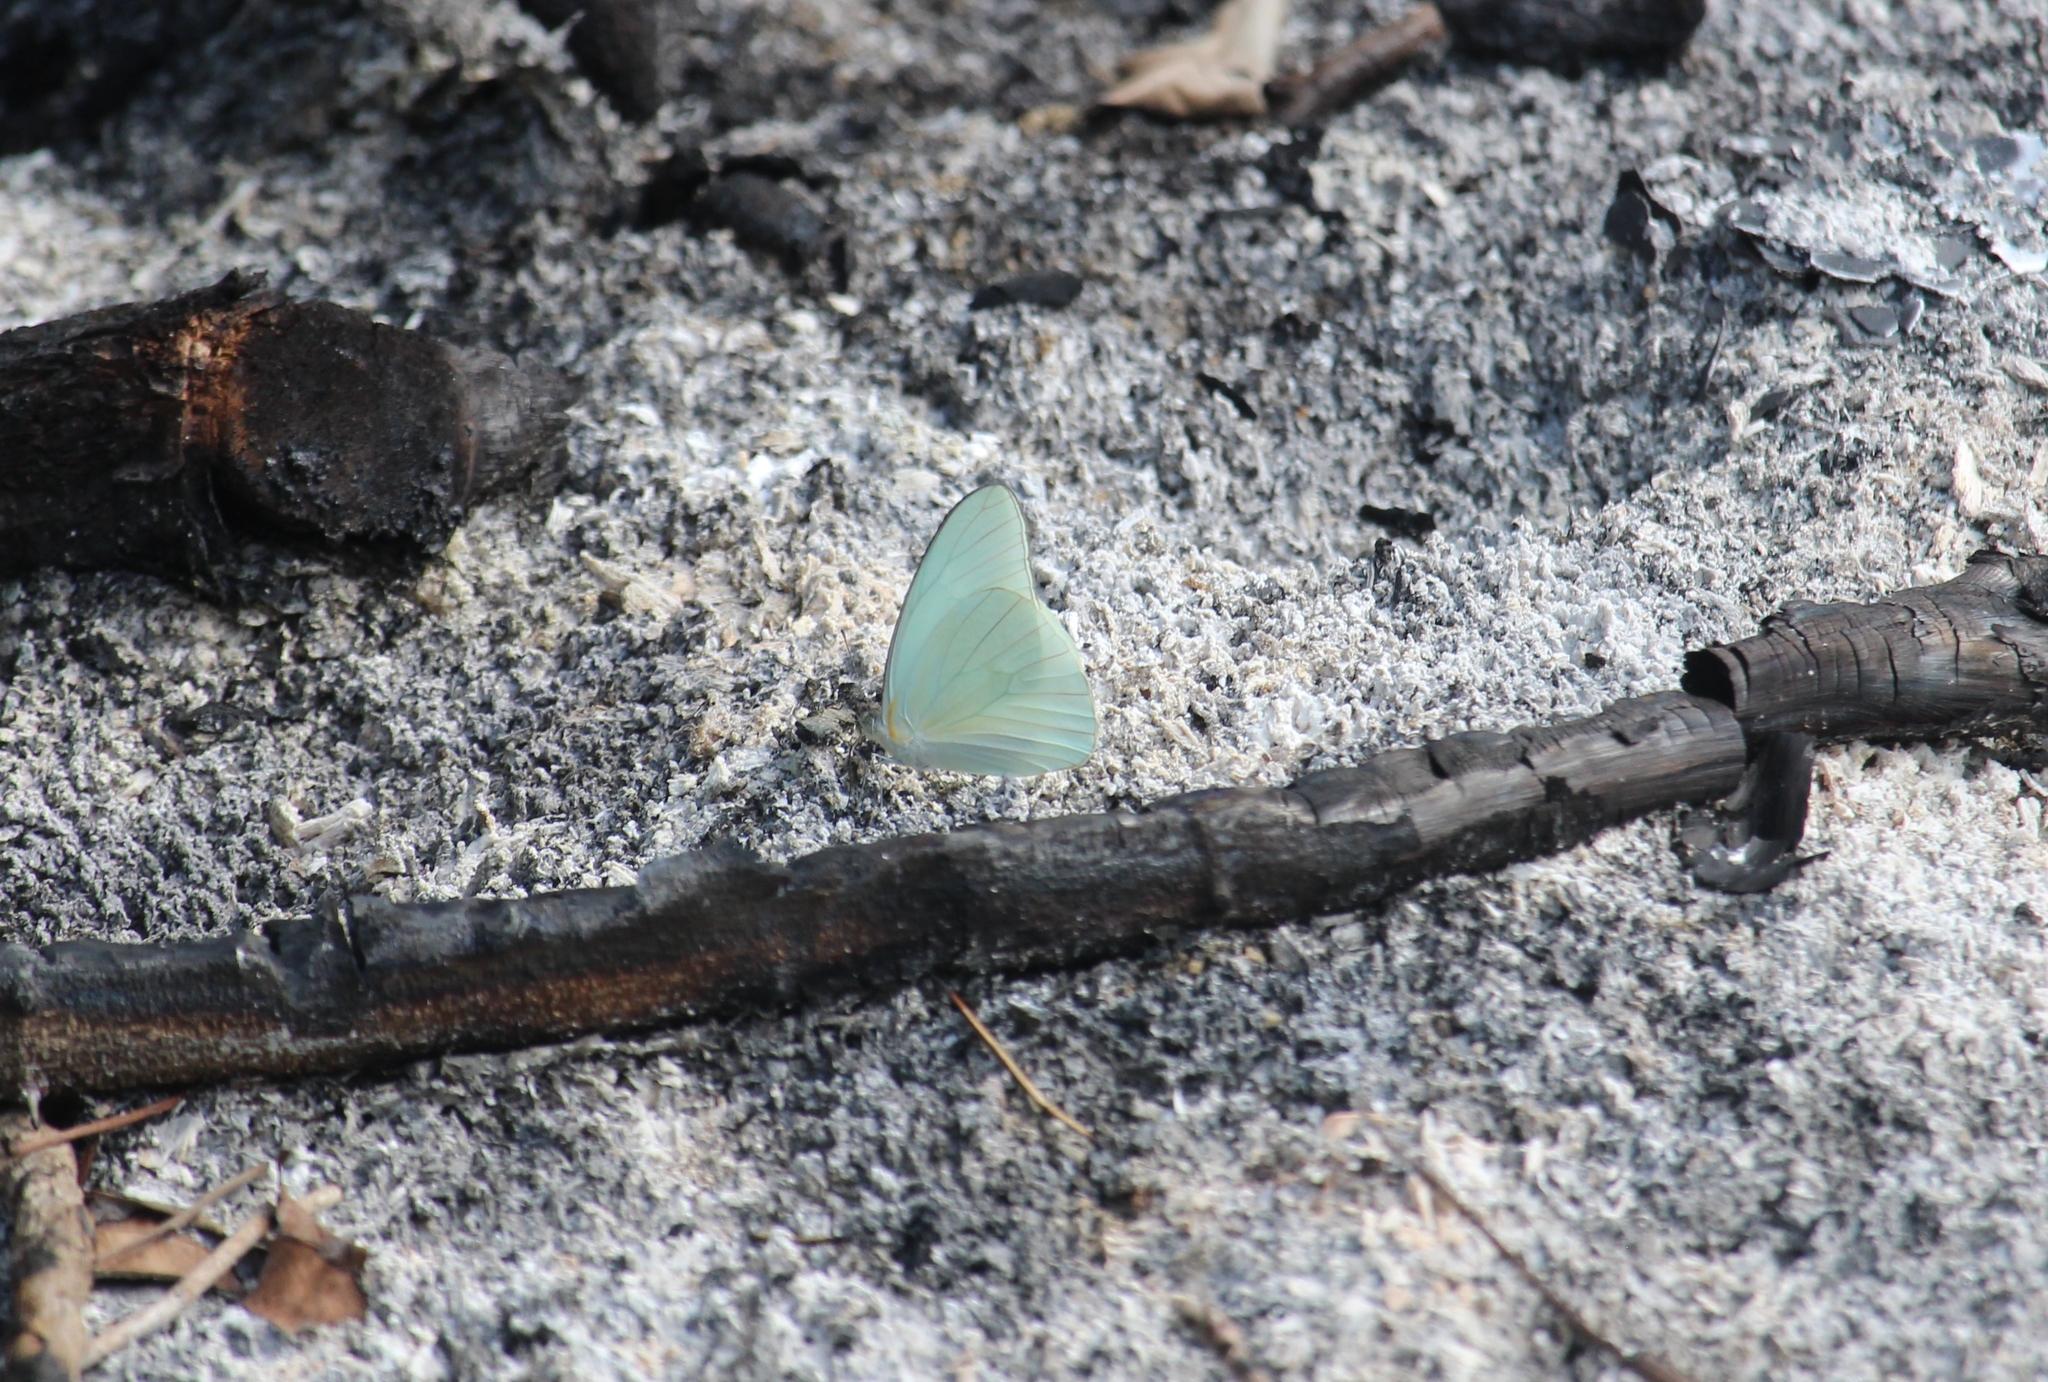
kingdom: Animalia
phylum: Arthropoda
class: Insecta
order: Lepidoptera
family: Pieridae
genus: Glutophrissa
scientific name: Glutophrissa drusilla
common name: Florida white
